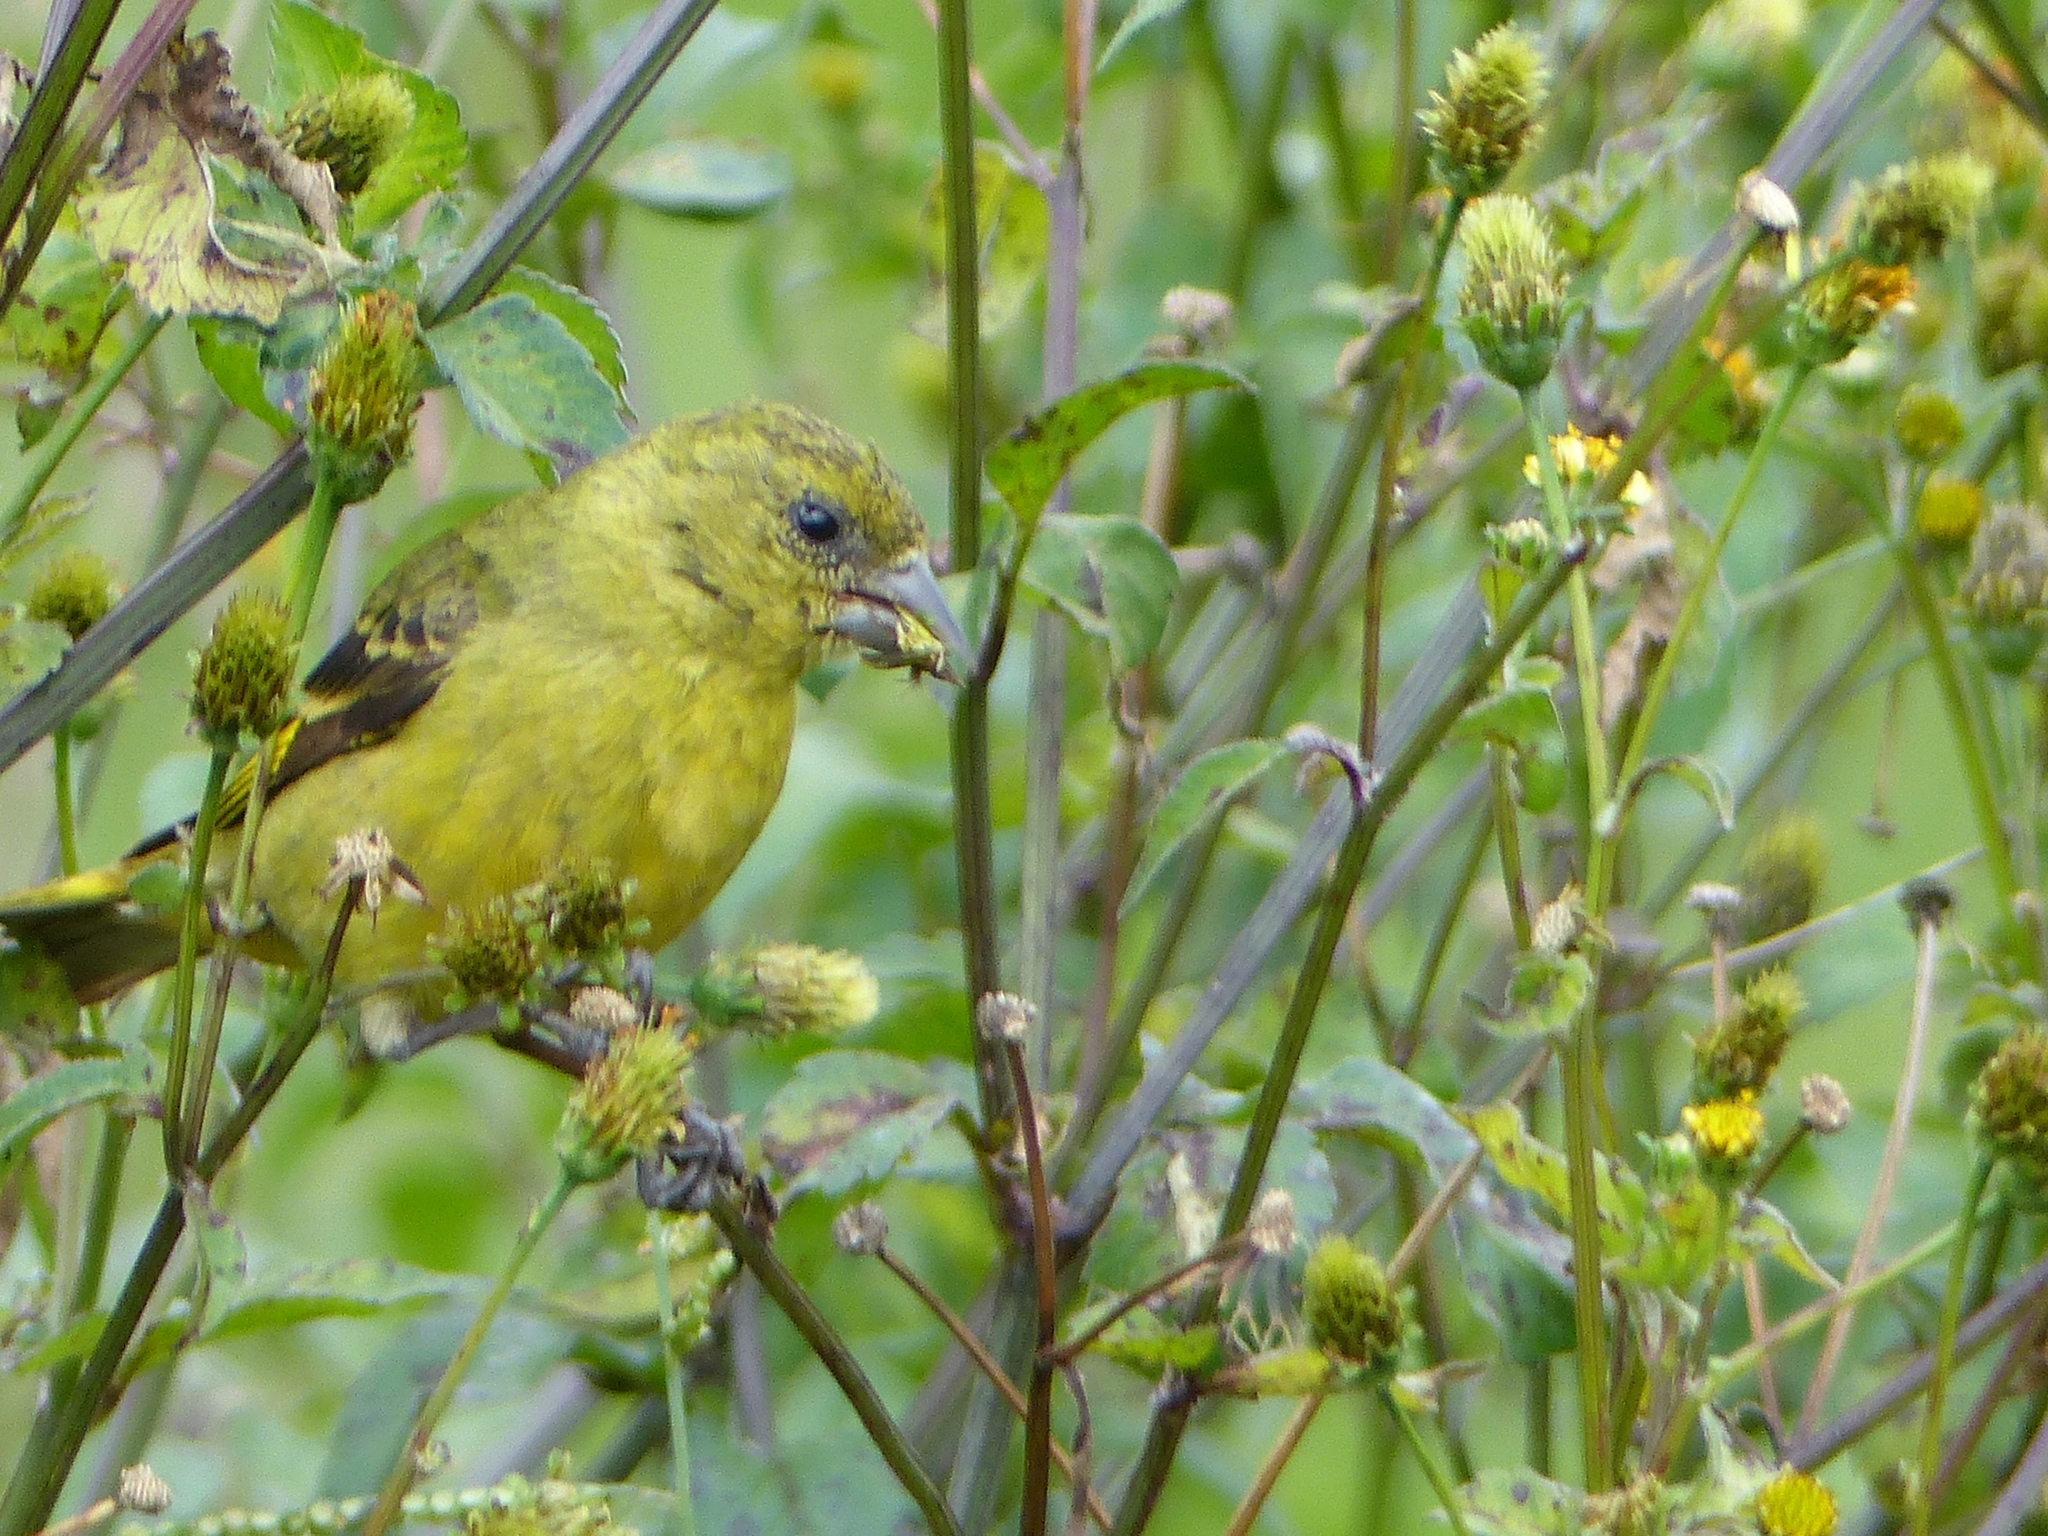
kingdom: Animalia
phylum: Chordata
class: Aves
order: Passeriformes
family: Fringillidae
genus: Spinus
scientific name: Spinus magellanicus
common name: Hooded siskin
